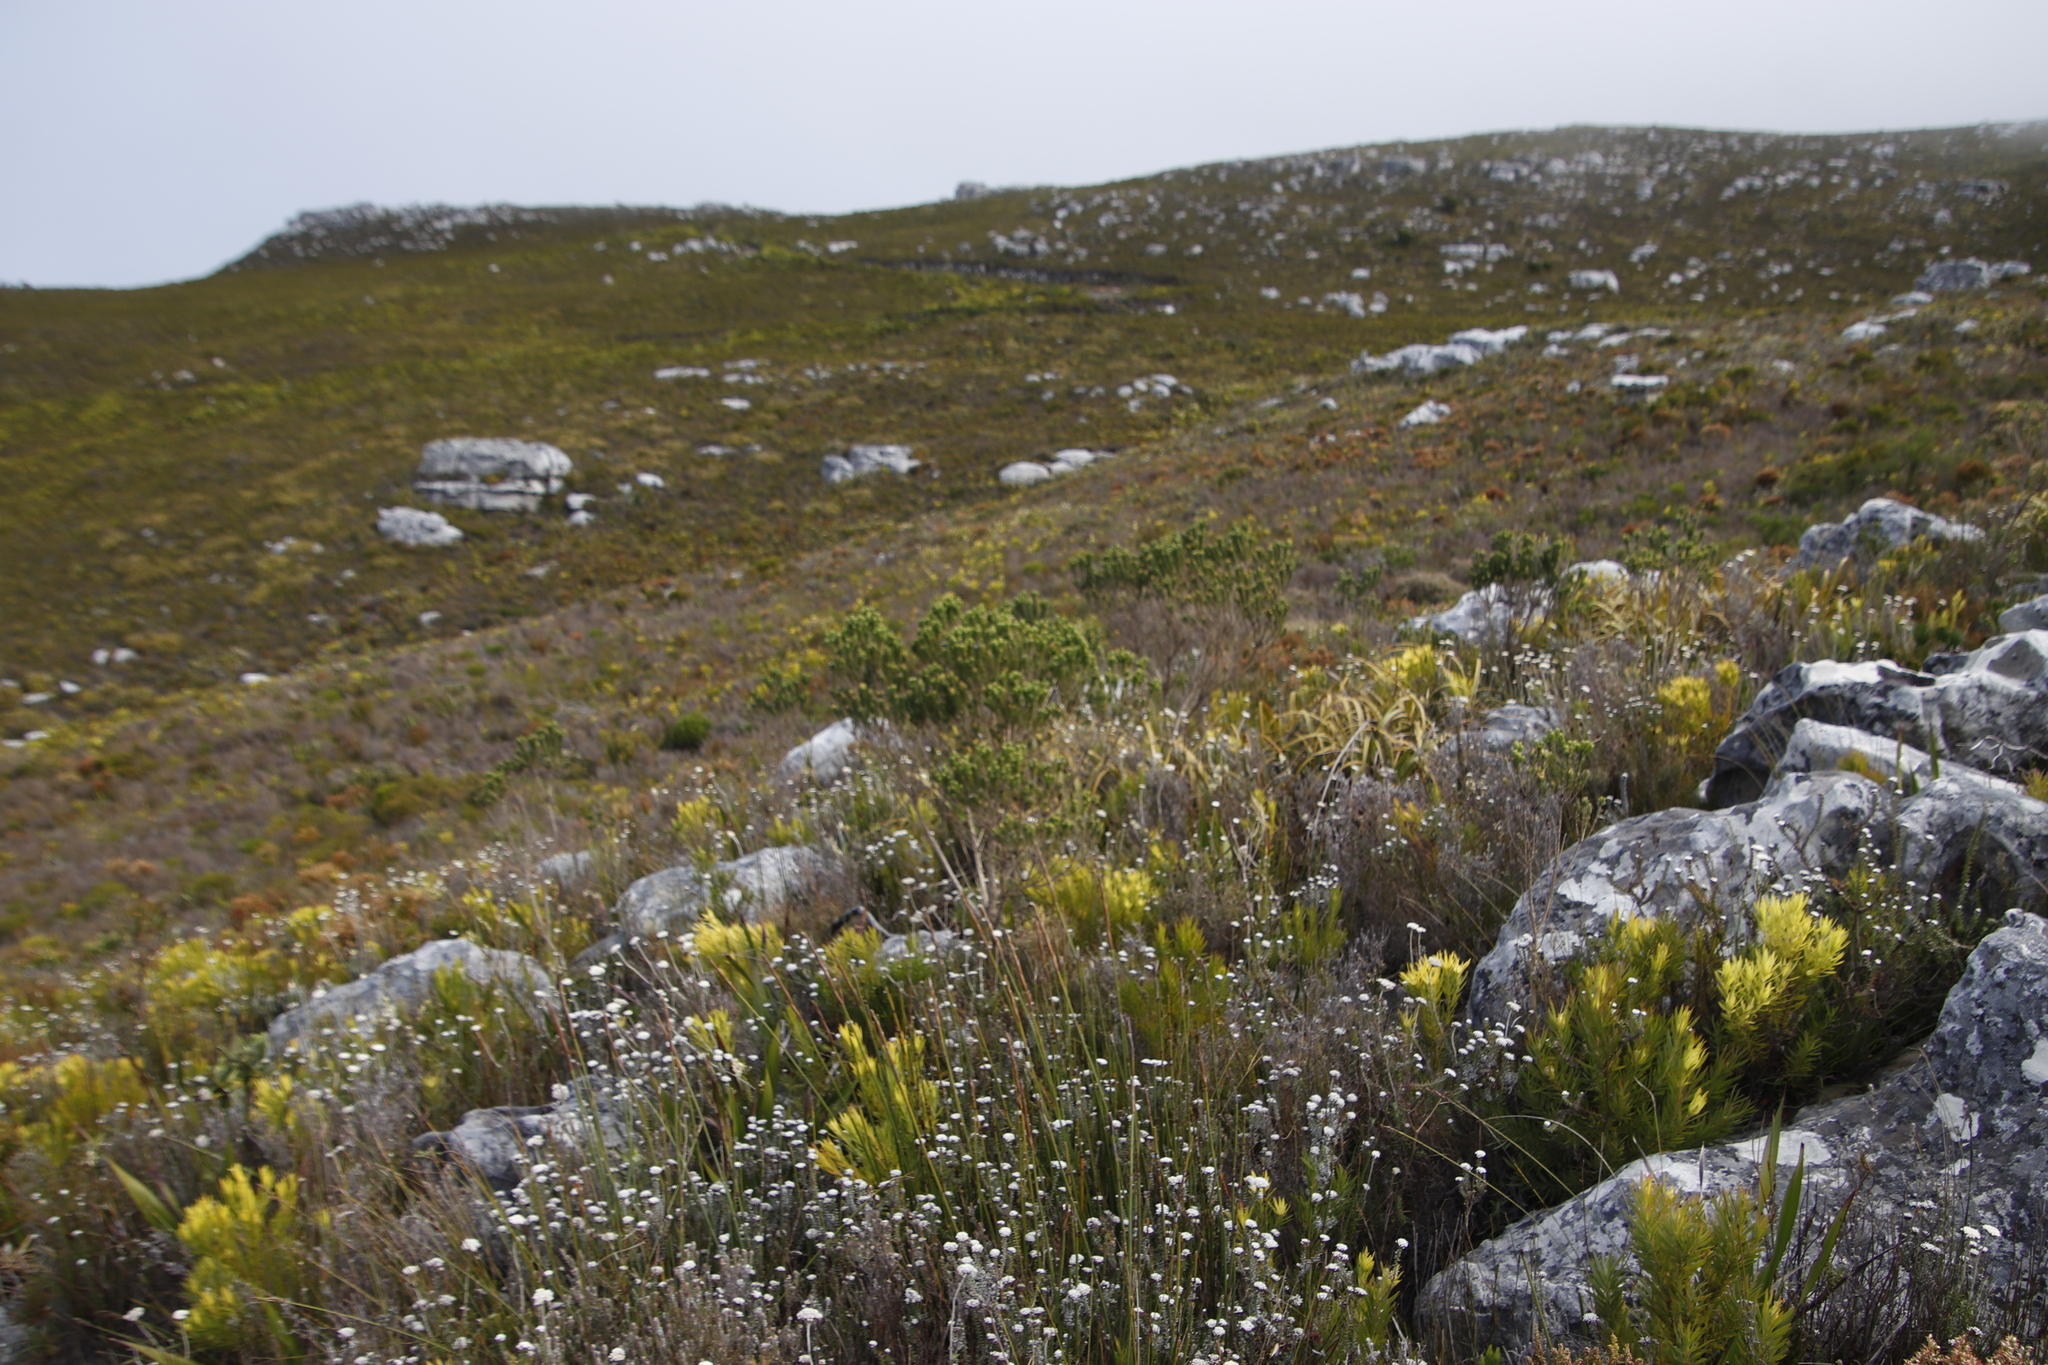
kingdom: Plantae
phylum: Tracheophyta
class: Magnoliopsida
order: Fabales
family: Fabaceae
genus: Aspalathus
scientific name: Aspalathus capitata
